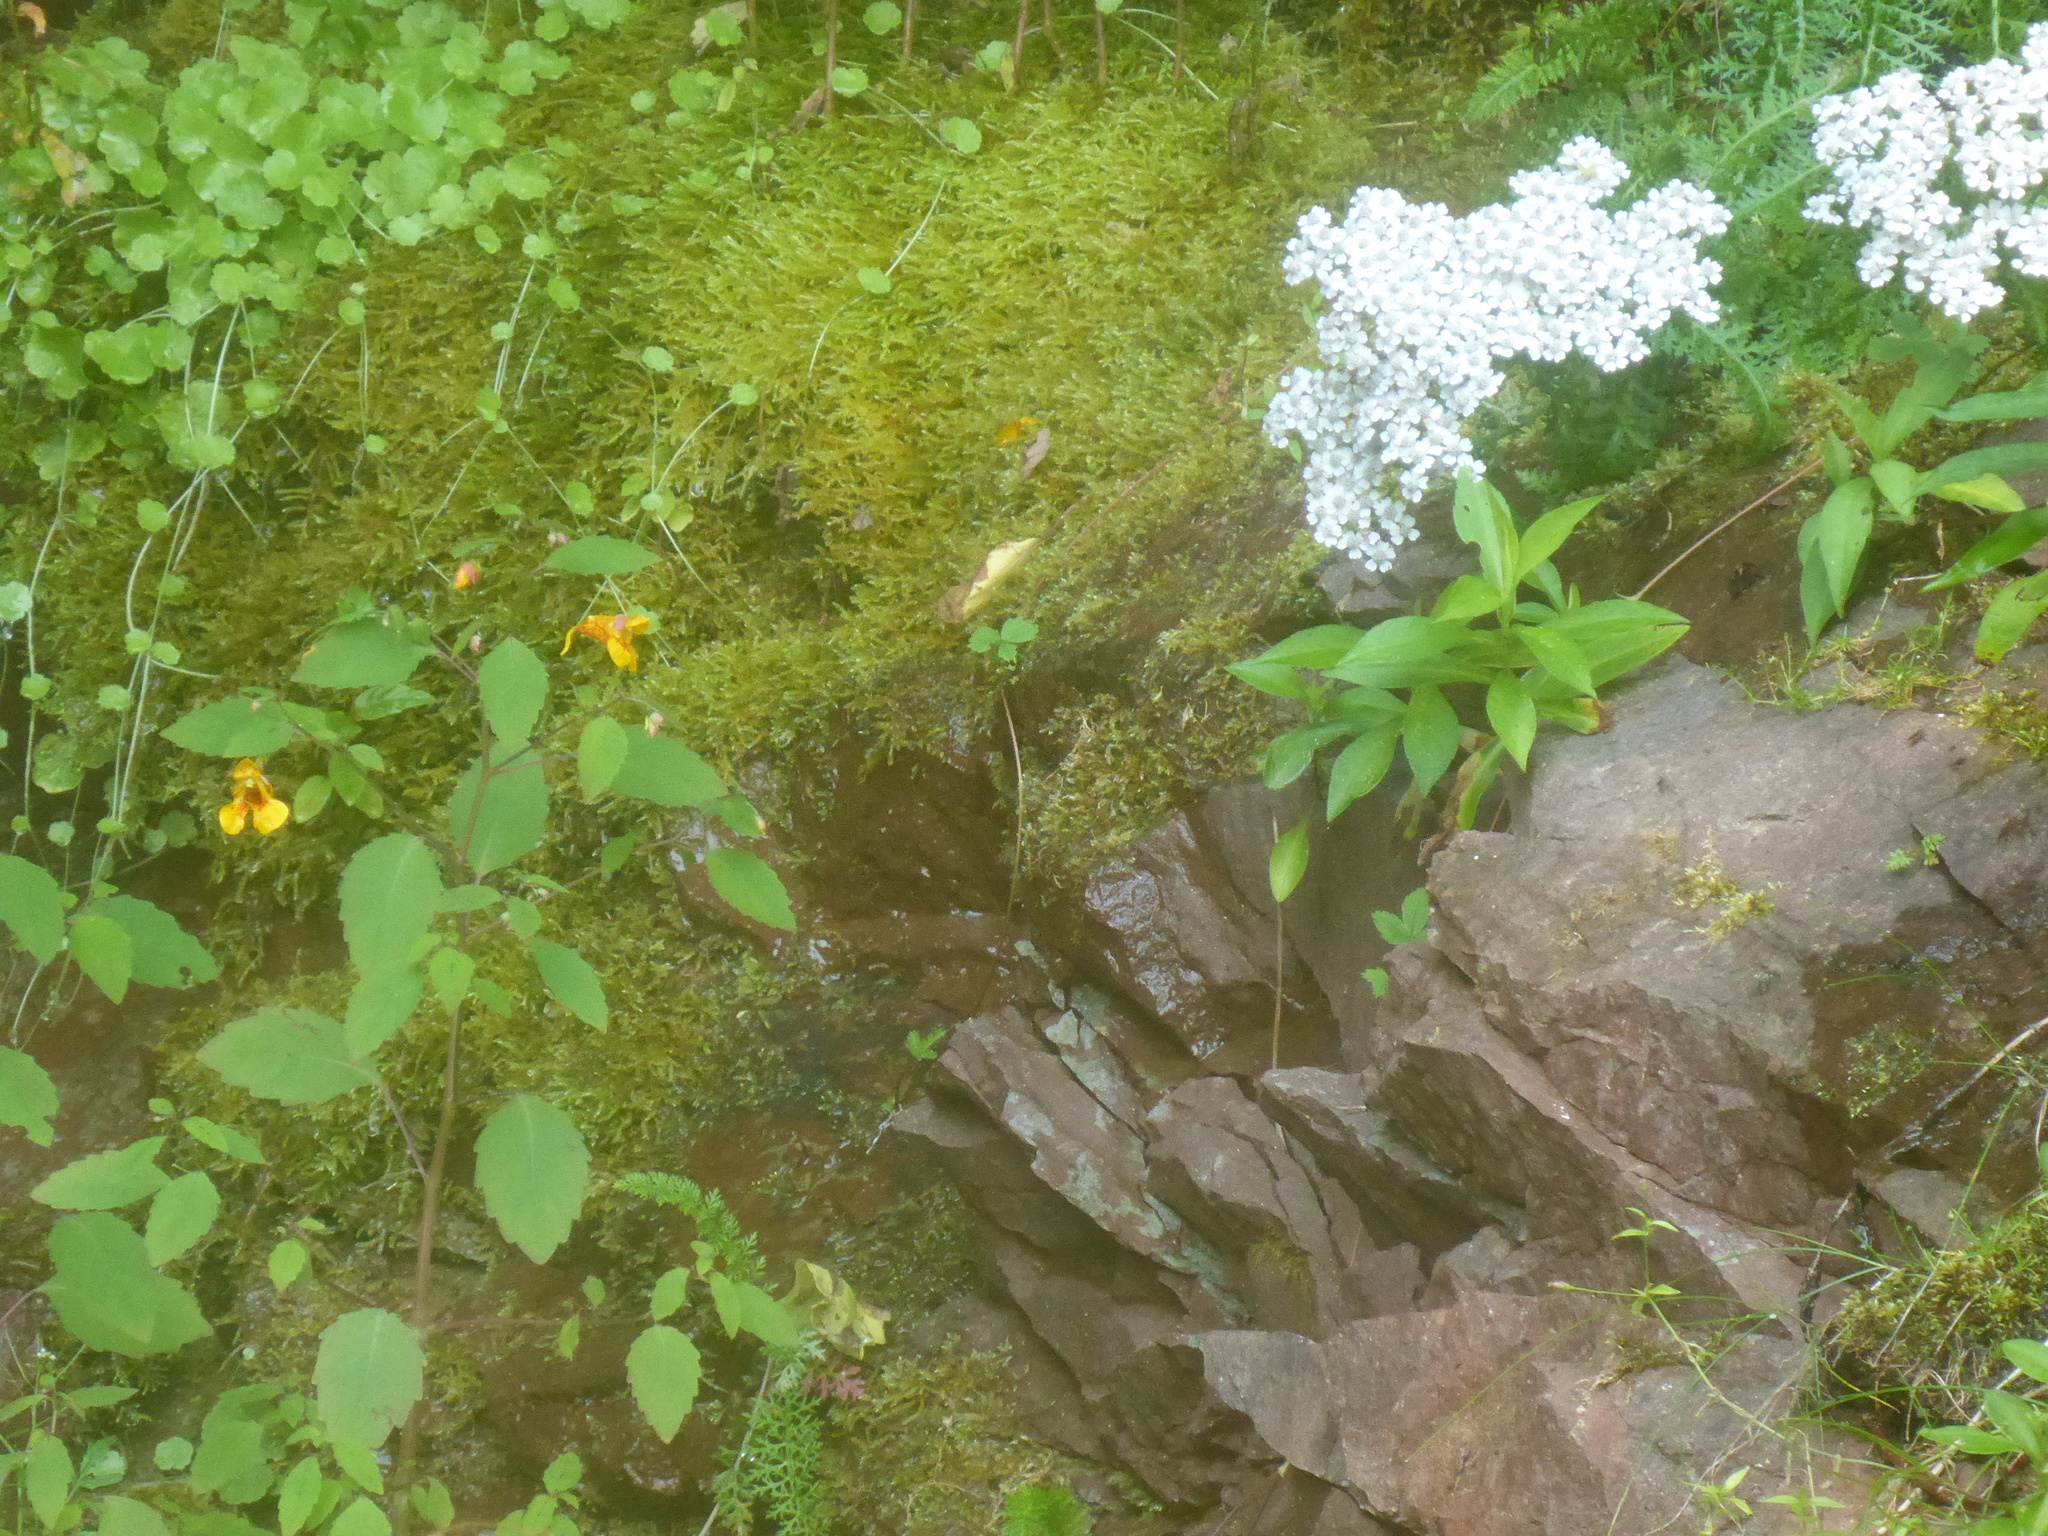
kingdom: Plantae
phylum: Tracheophyta
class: Magnoliopsida
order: Ericales
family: Balsaminaceae
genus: Impatiens
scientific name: Impatiens capensis
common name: Orange balsam
